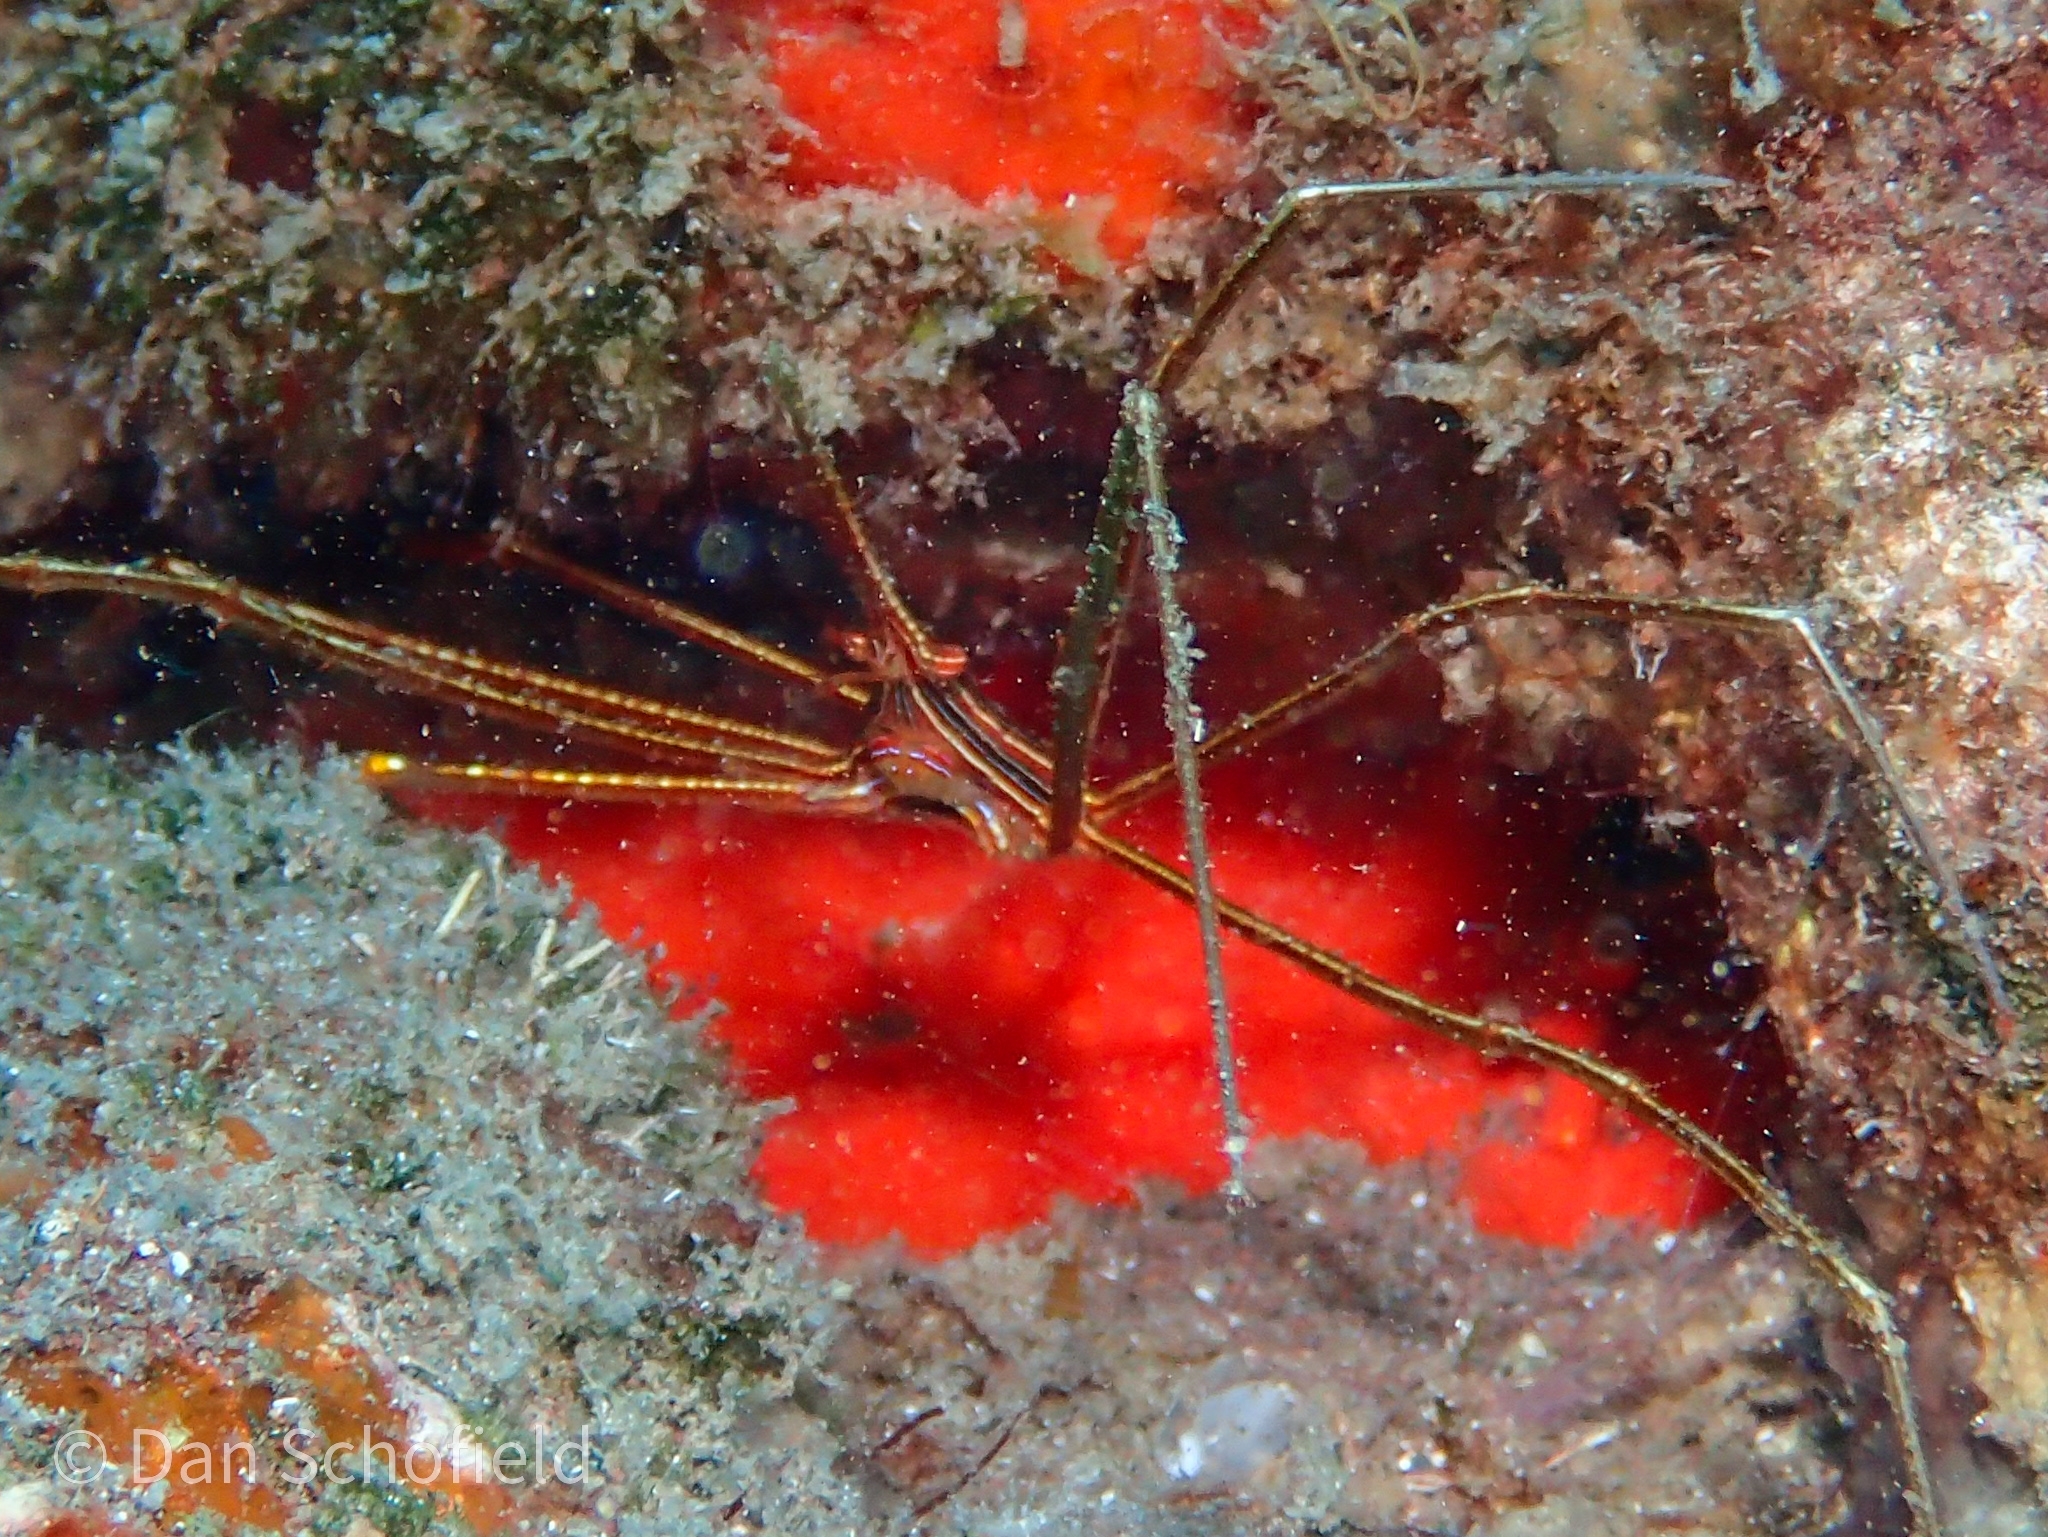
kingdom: Animalia
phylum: Arthropoda
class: Malacostraca
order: Decapoda
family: Inachoididae
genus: Stenorhynchus
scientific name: Stenorhynchus seticornis
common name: Arrow crab
